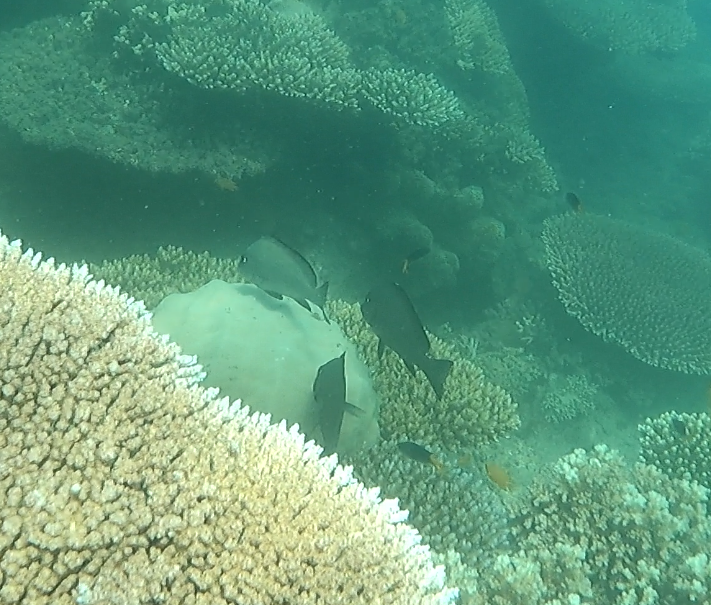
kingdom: Animalia
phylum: Chordata
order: Perciformes
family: Haemulidae
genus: Diagramma
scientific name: Diagramma labiosum
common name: Painted sweetlips
